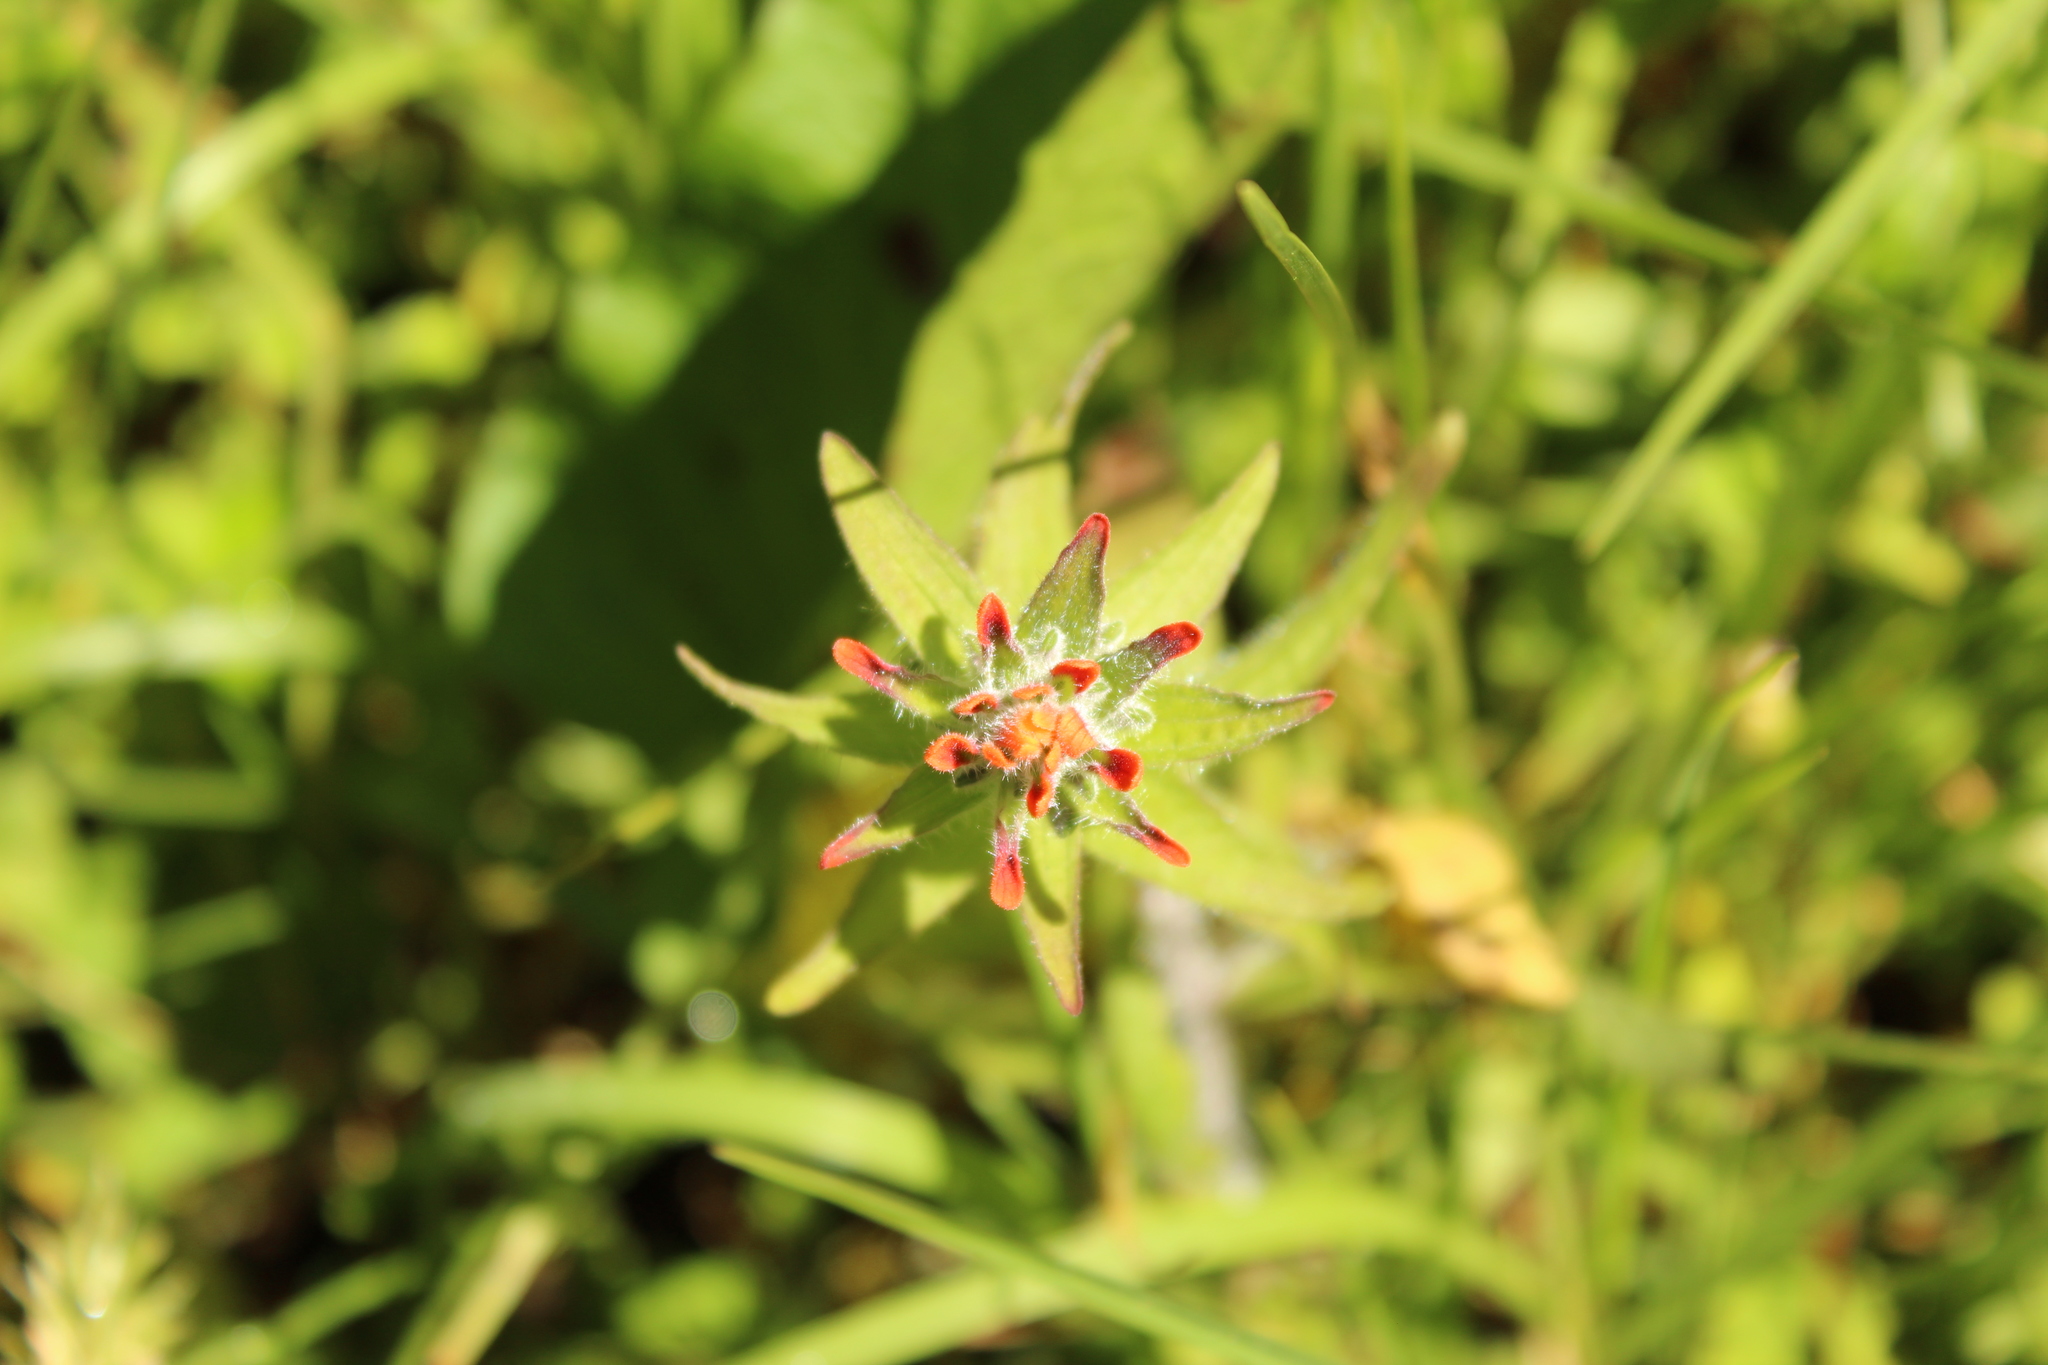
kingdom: Plantae
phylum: Tracheophyta
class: Magnoliopsida
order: Lamiales
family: Orobanchaceae
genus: Castilleja
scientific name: Castilleja arvensis
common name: Indian paintbrush
